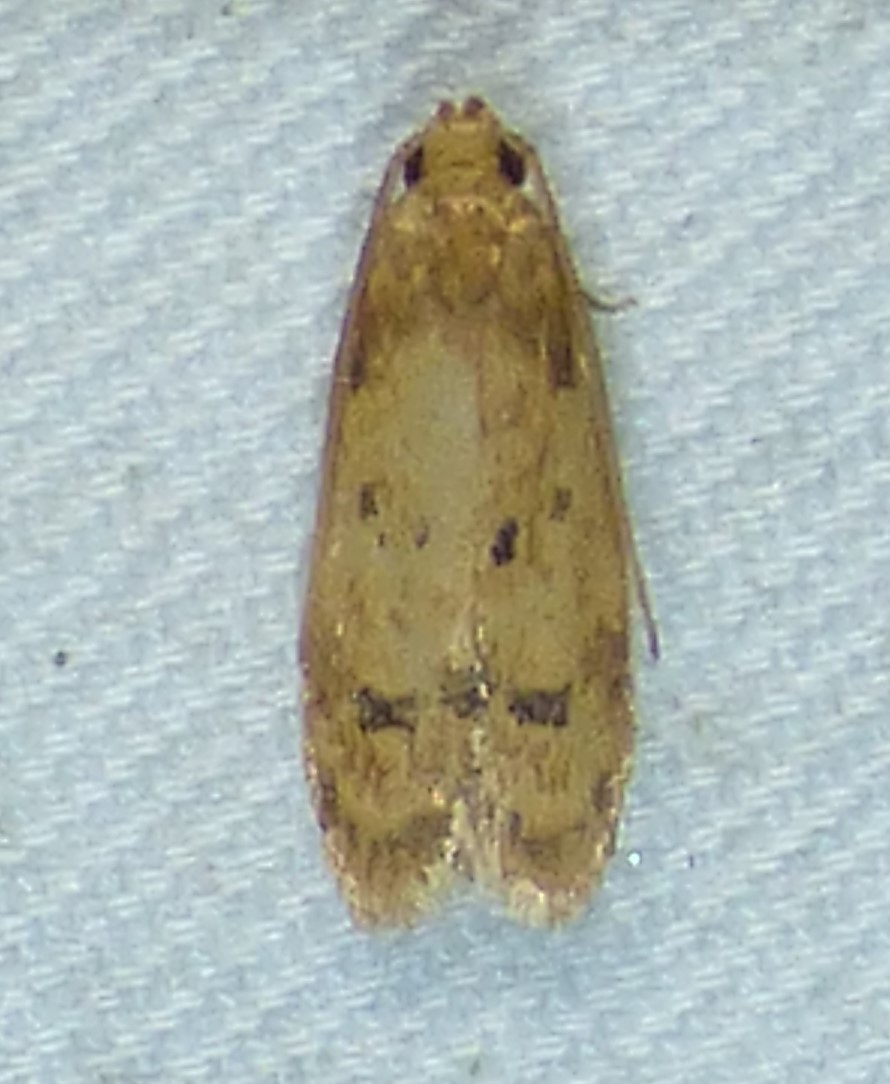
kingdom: Animalia
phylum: Arthropoda
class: Insecta
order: Lepidoptera
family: Autostichidae
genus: Gerdana
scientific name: Gerdana caritella
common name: Gerdana moth
